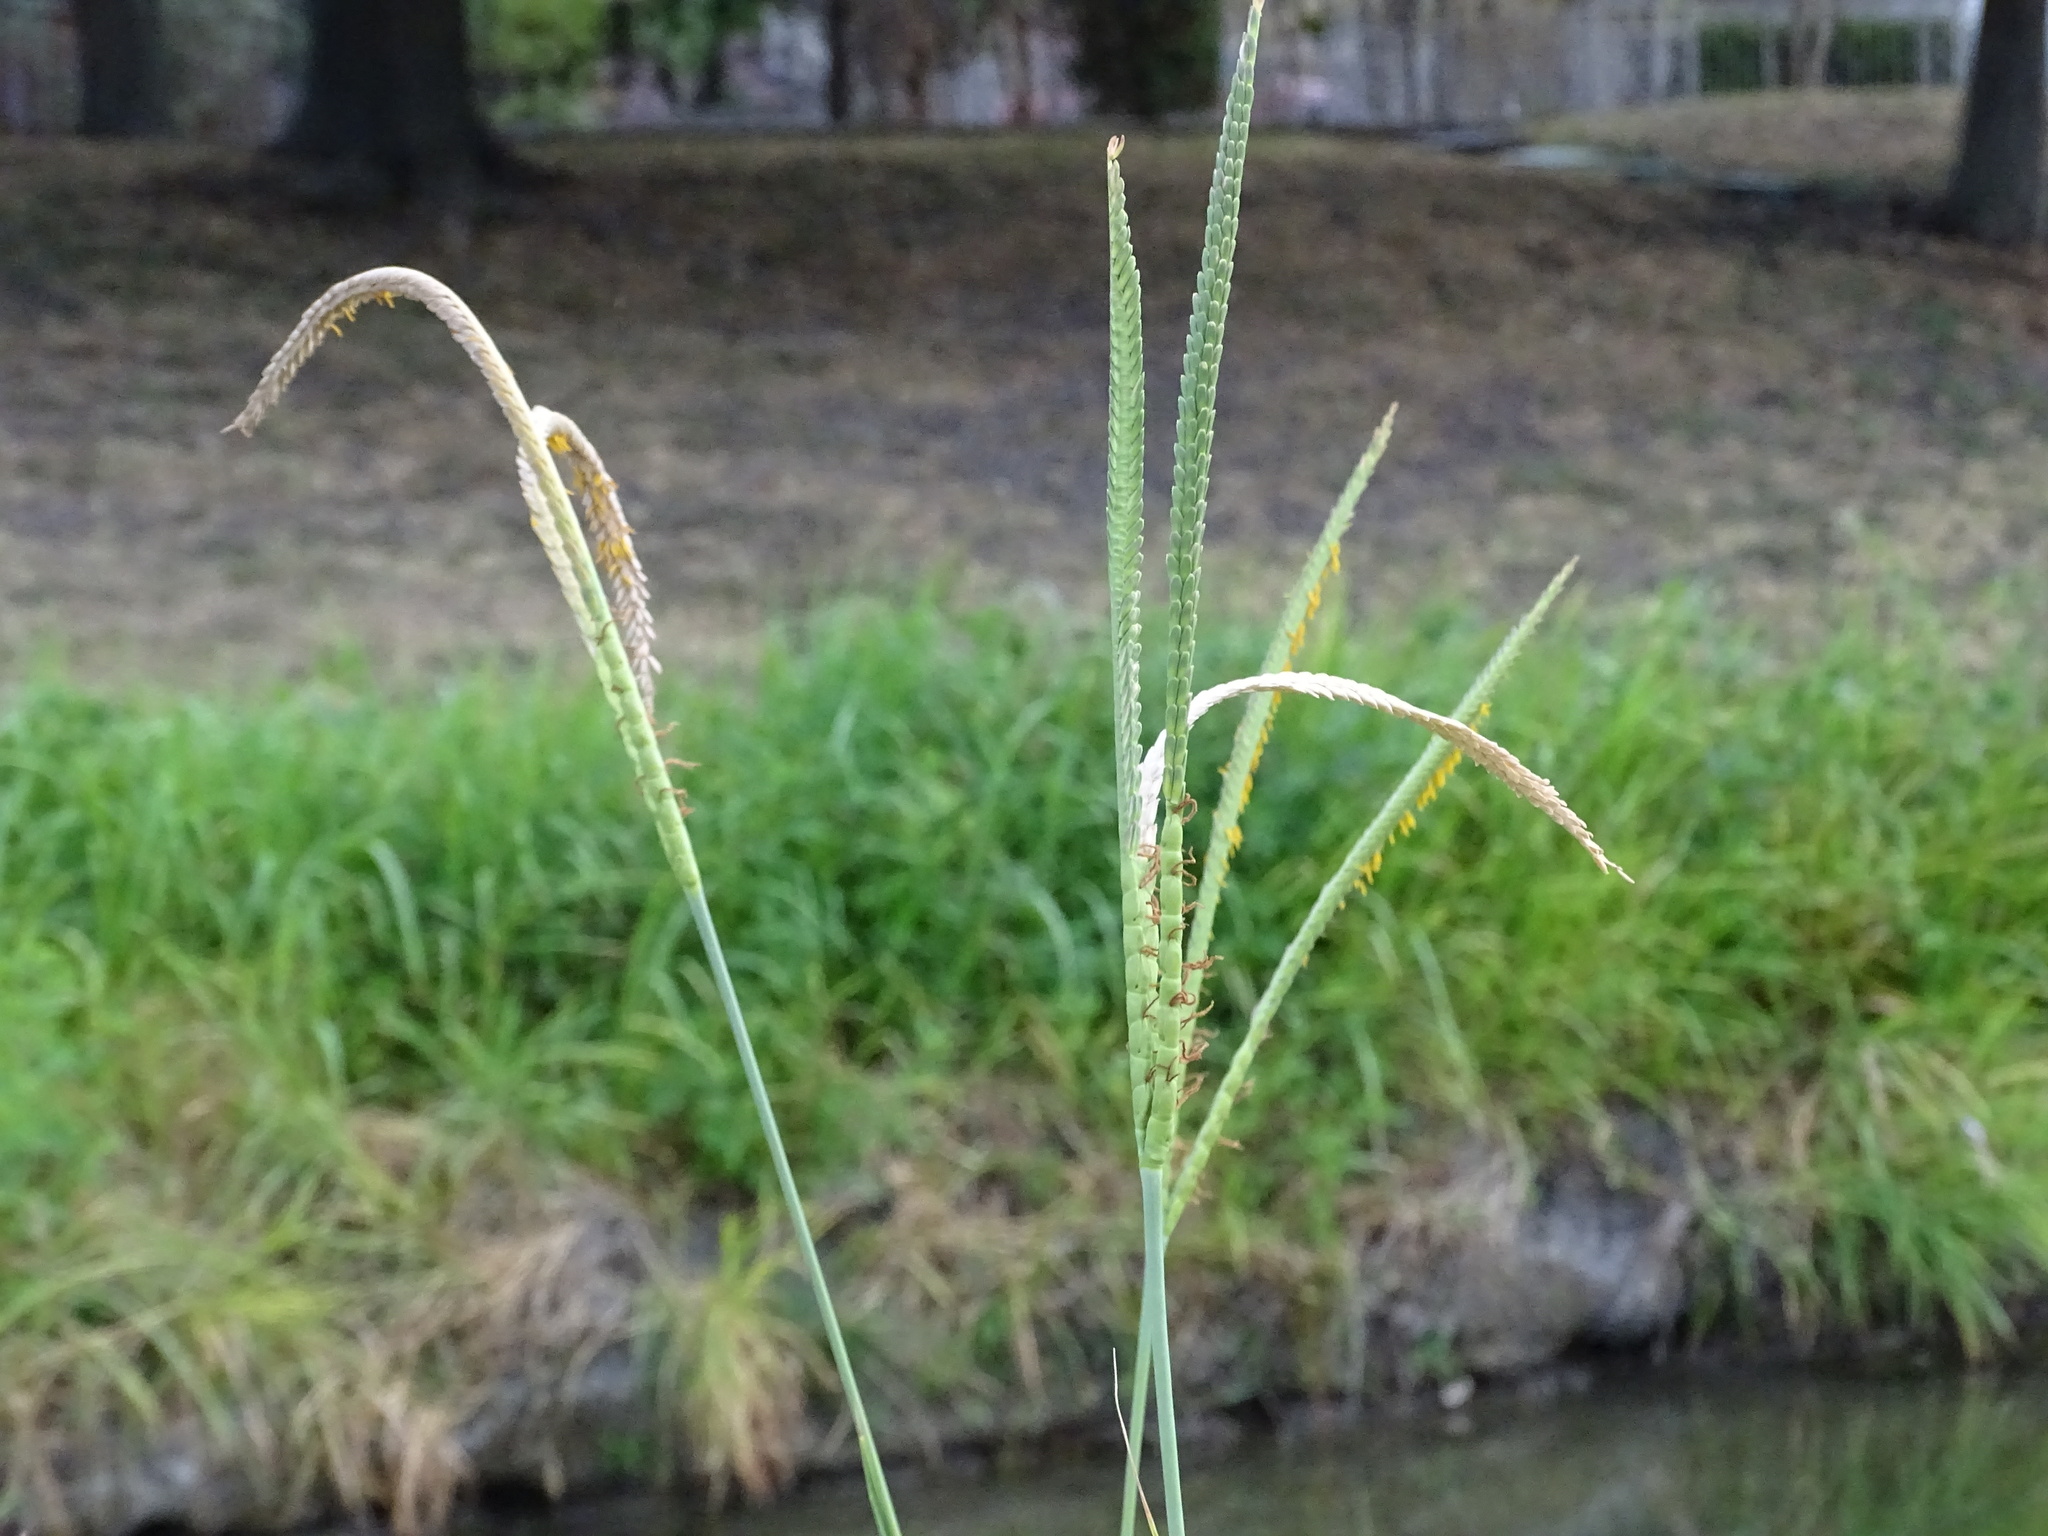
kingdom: Plantae
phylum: Tracheophyta
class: Liliopsida
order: Poales
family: Poaceae
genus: Tripsacum
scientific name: Tripsacum dactyloides
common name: Buffalo-grass
